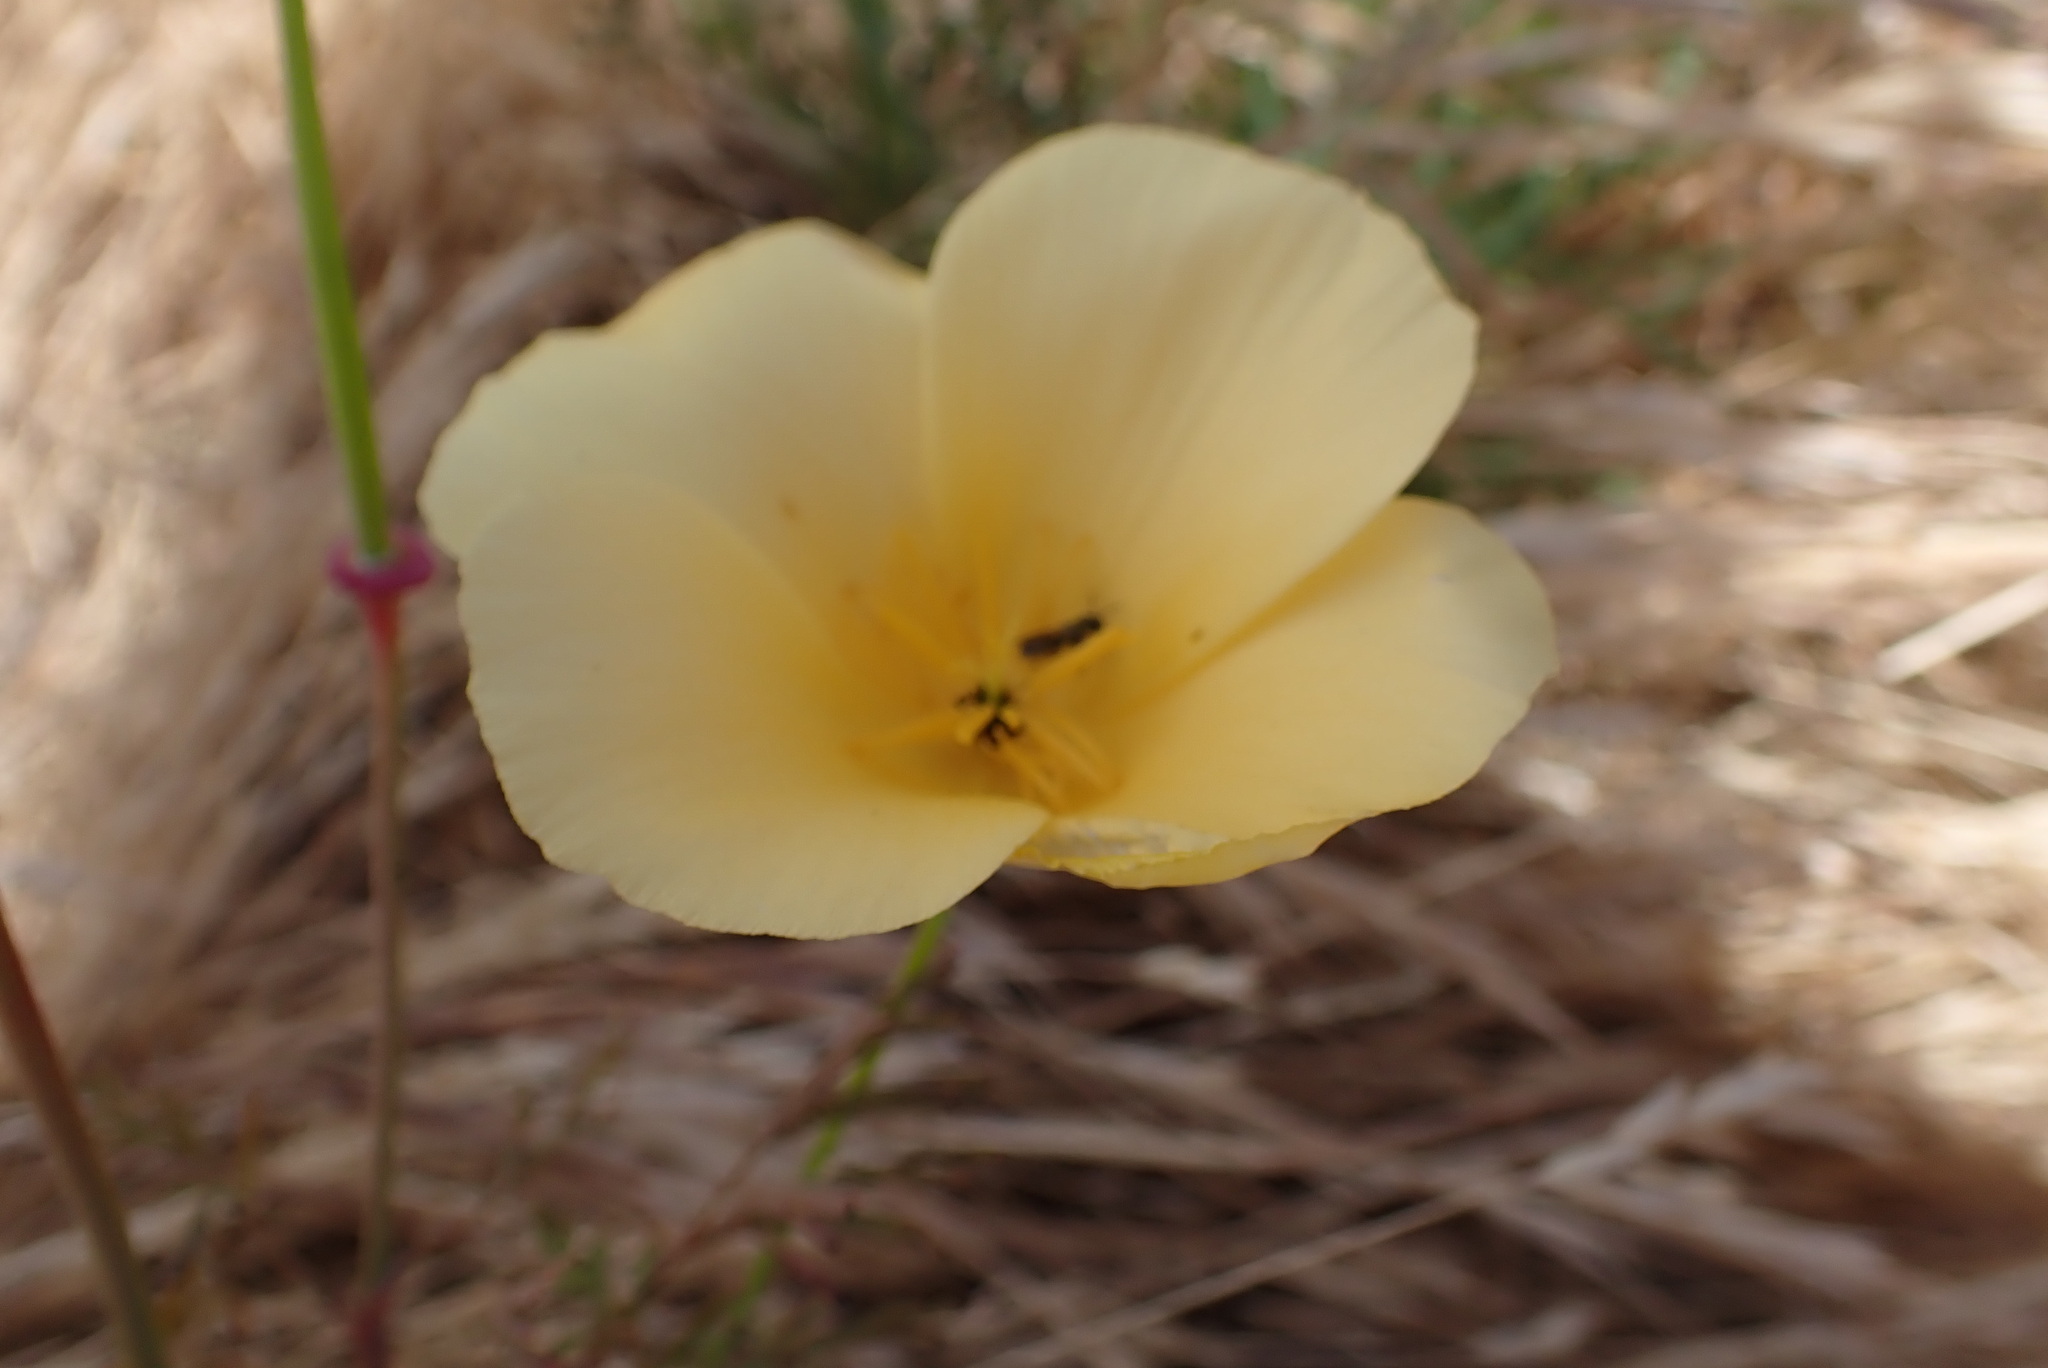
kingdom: Plantae
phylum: Tracheophyta
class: Magnoliopsida
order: Ranunculales
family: Papaveraceae
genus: Eschscholzia
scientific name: Eschscholzia californica
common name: California poppy
